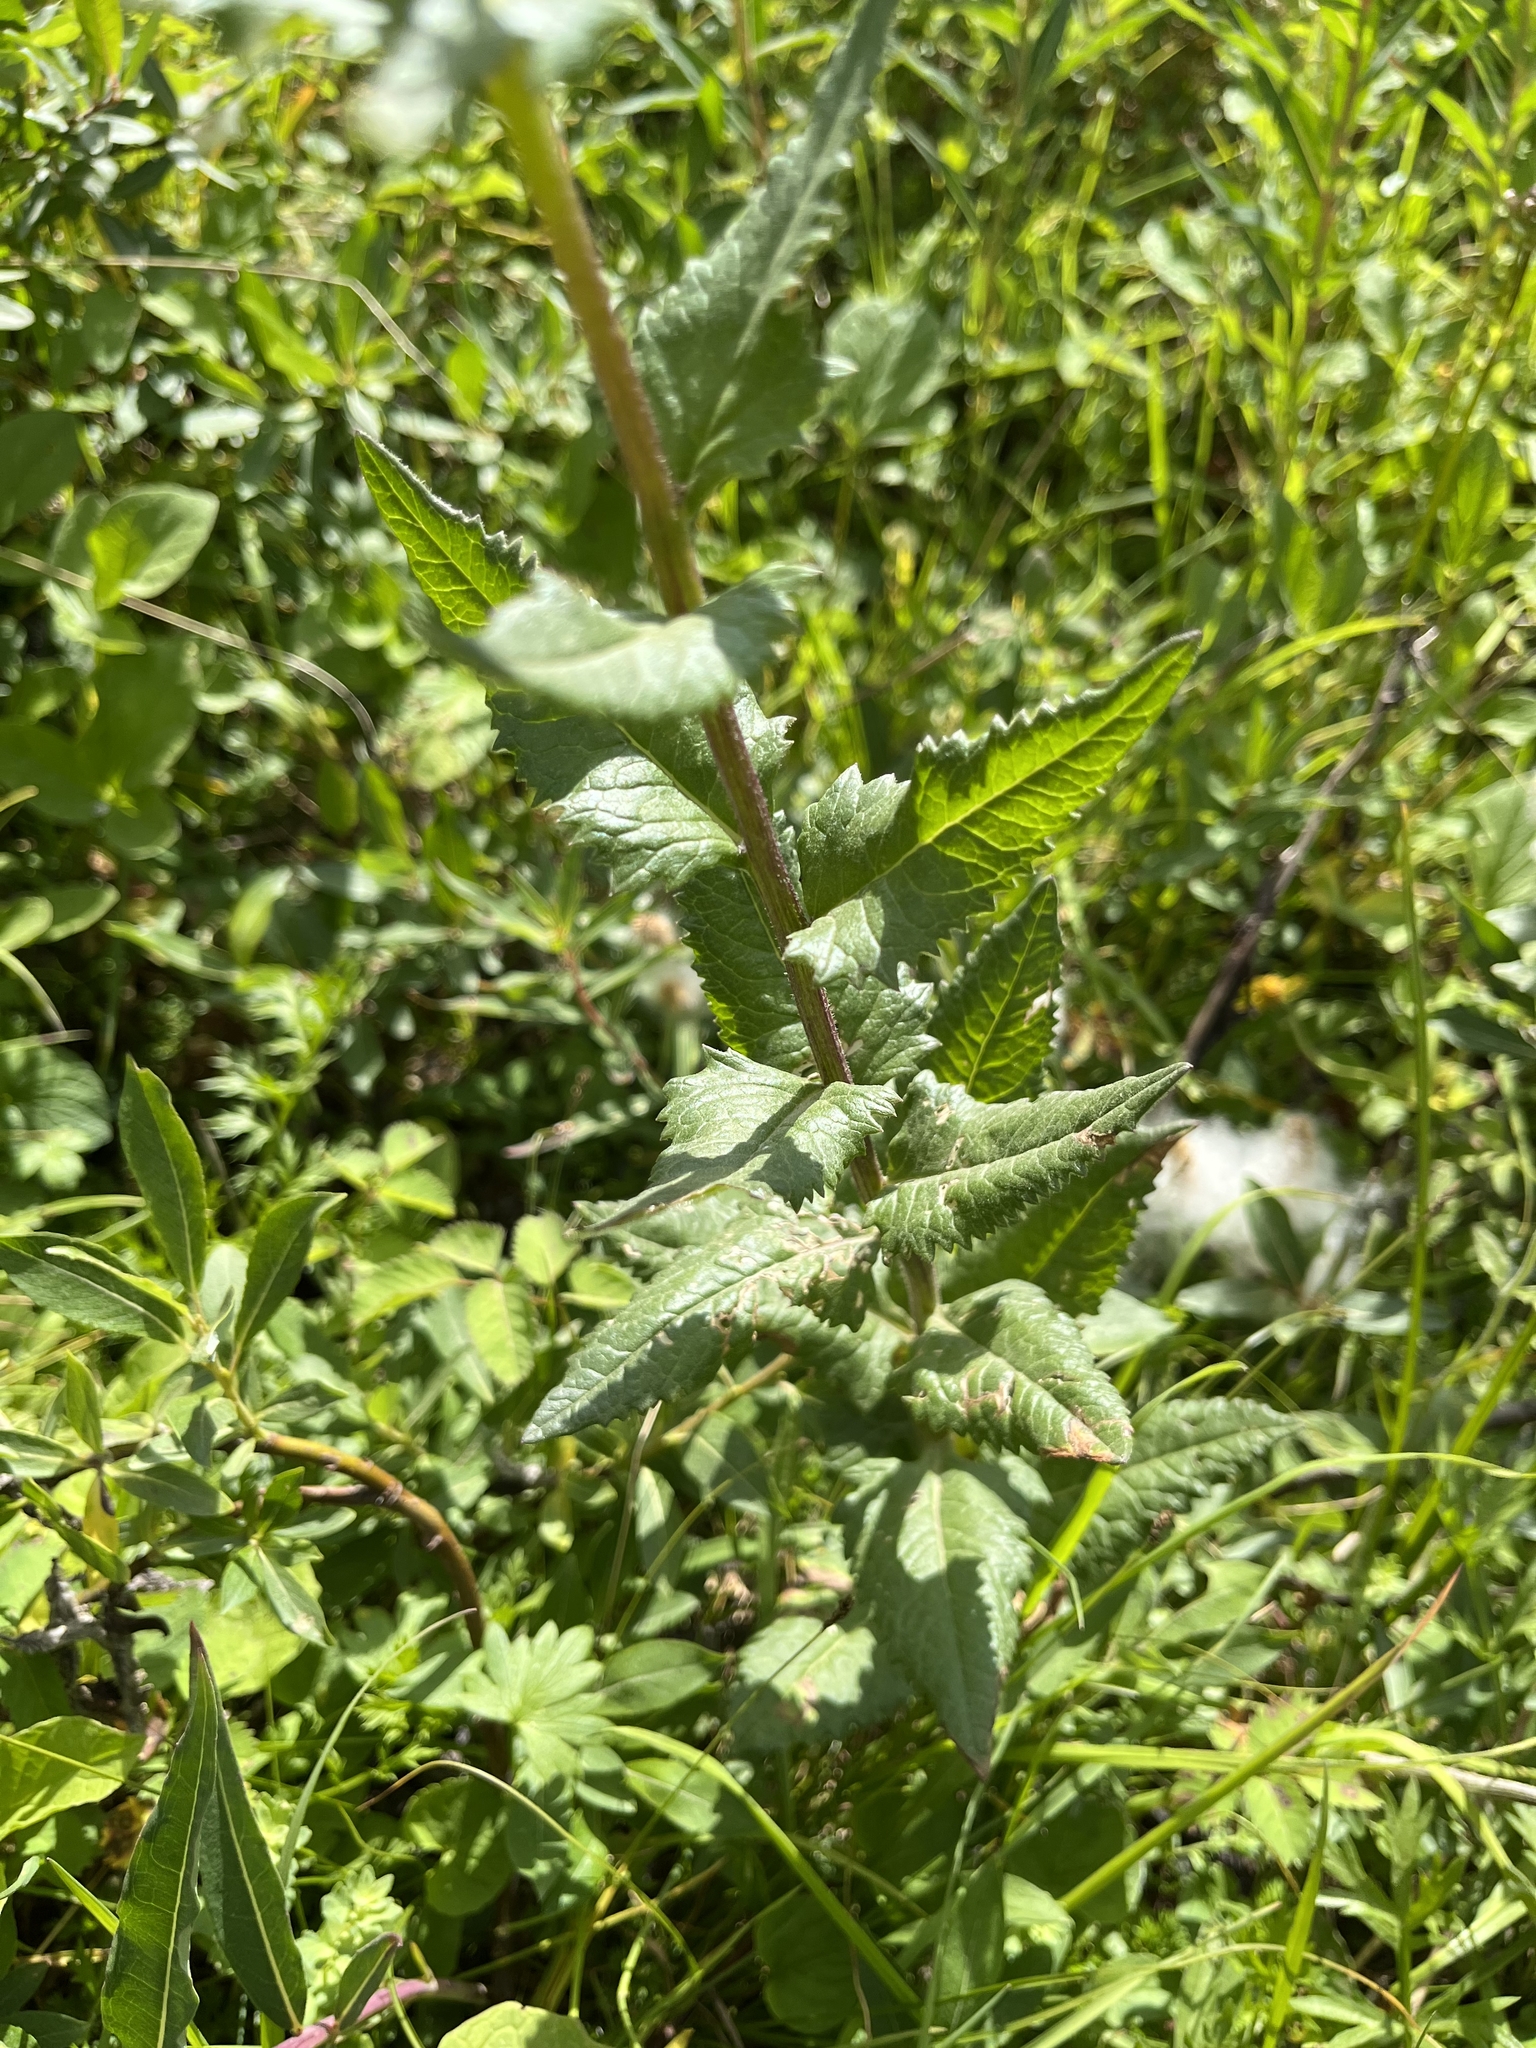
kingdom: Plantae
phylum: Tracheophyta
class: Magnoliopsida
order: Asterales
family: Asteraceae
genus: Senecio
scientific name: Senecio triangularis
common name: Arrowleaf butterweed
